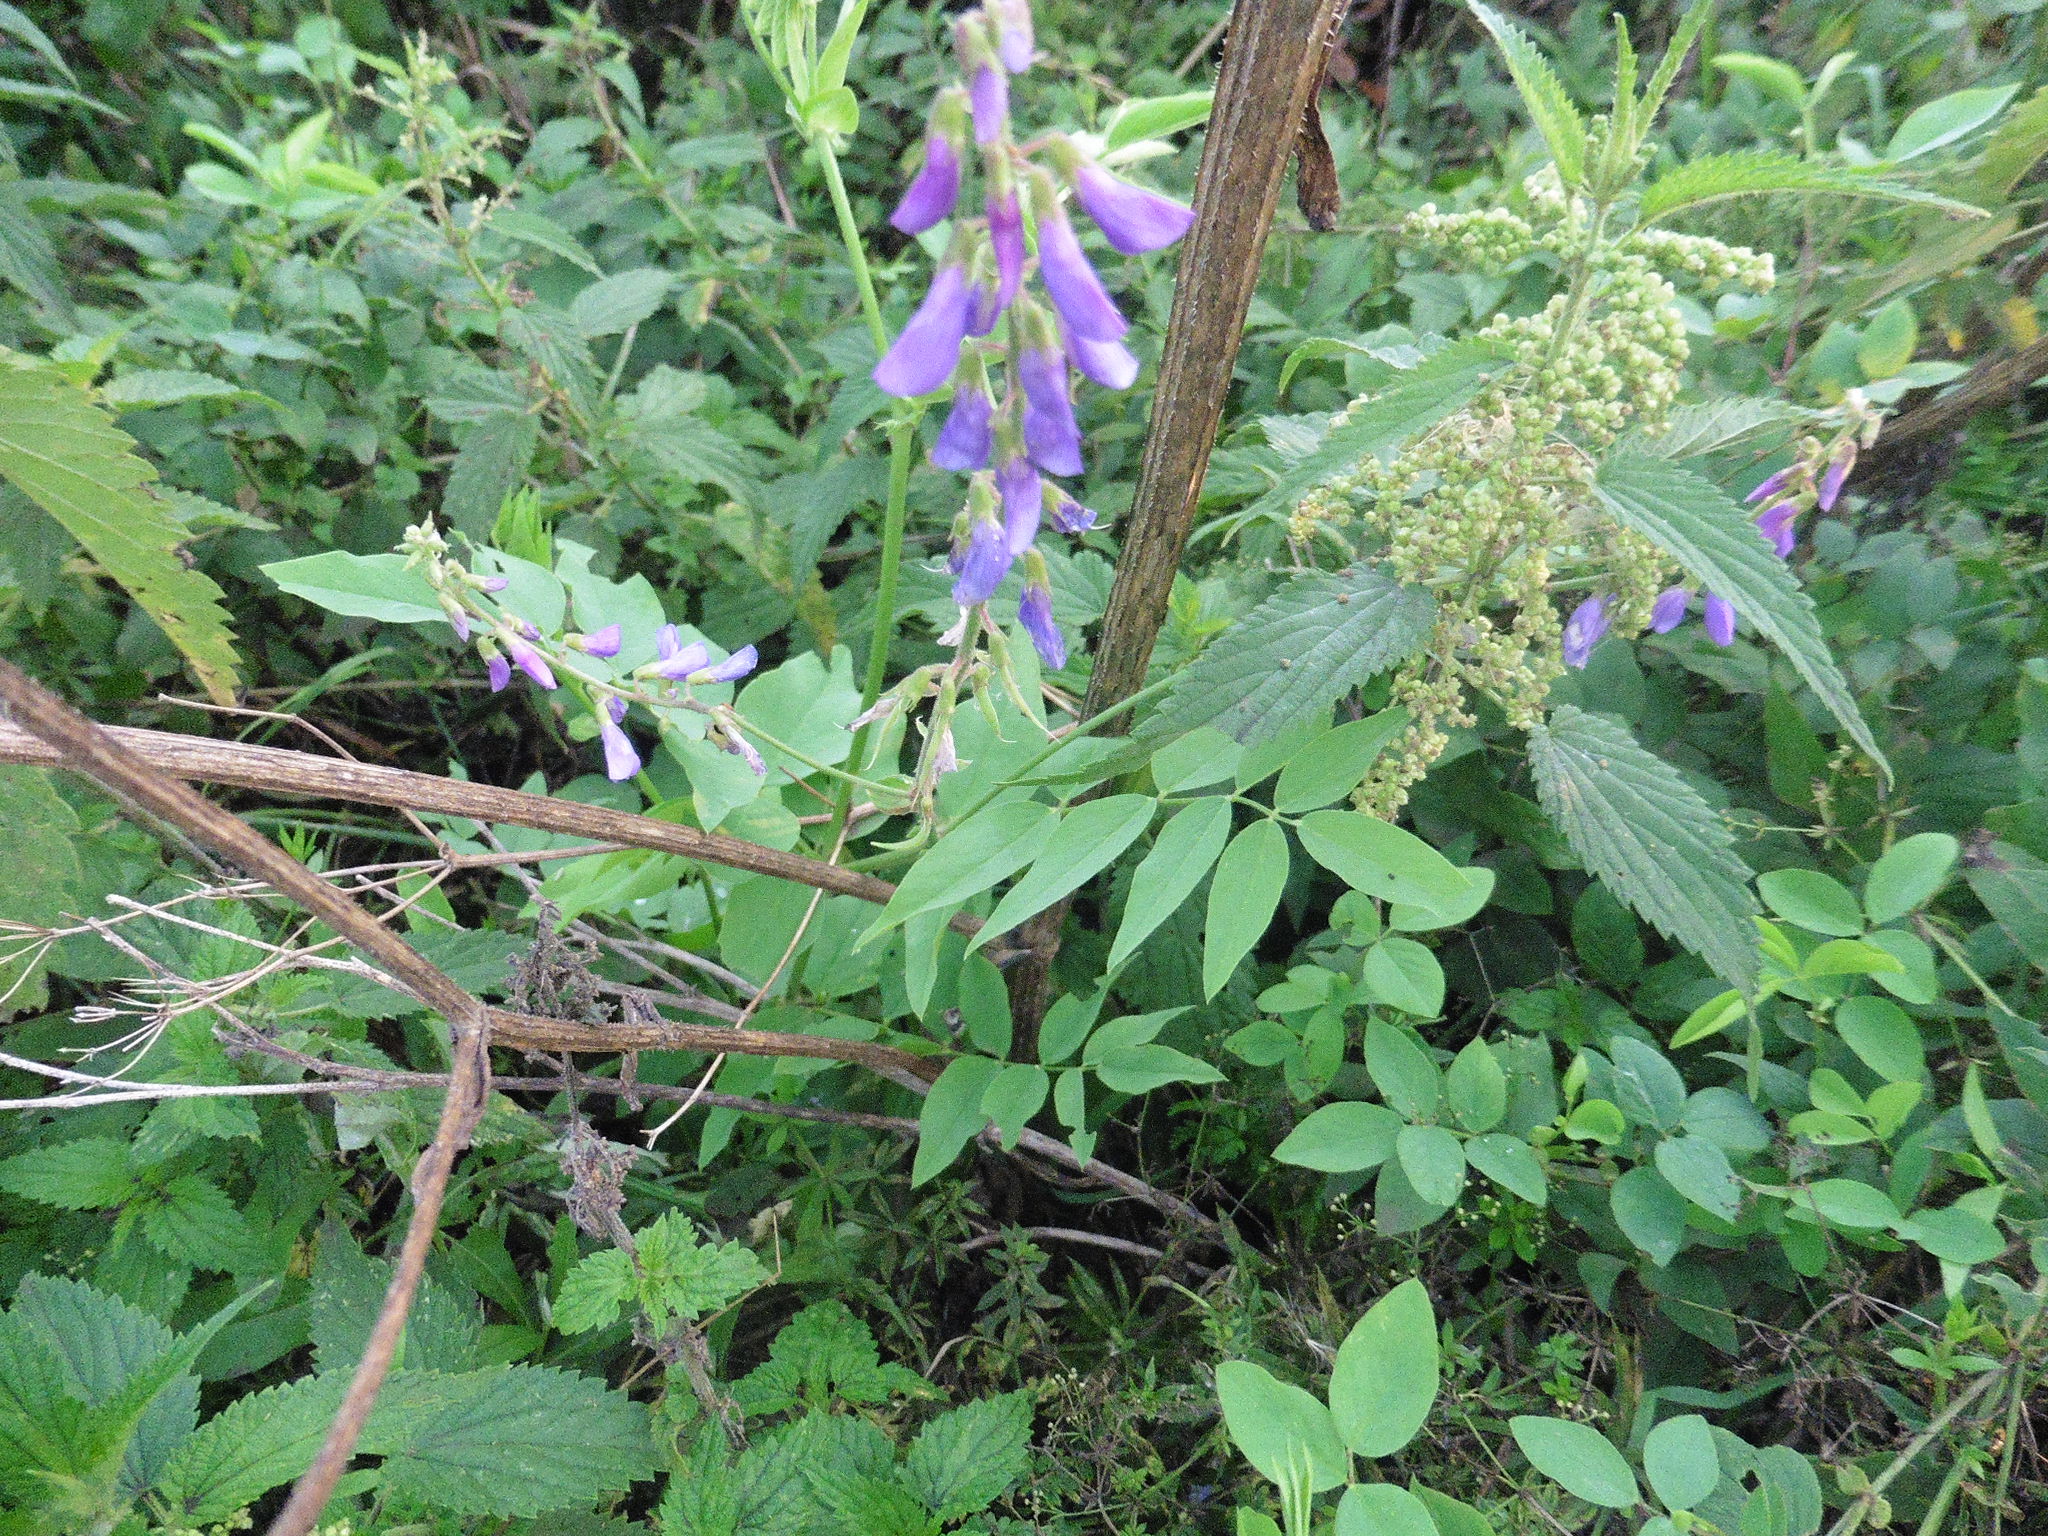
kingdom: Plantae
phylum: Tracheophyta
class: Magnoliopsida
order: Fabales
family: Fabaceae
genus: Galega
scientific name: Galega orientalis
